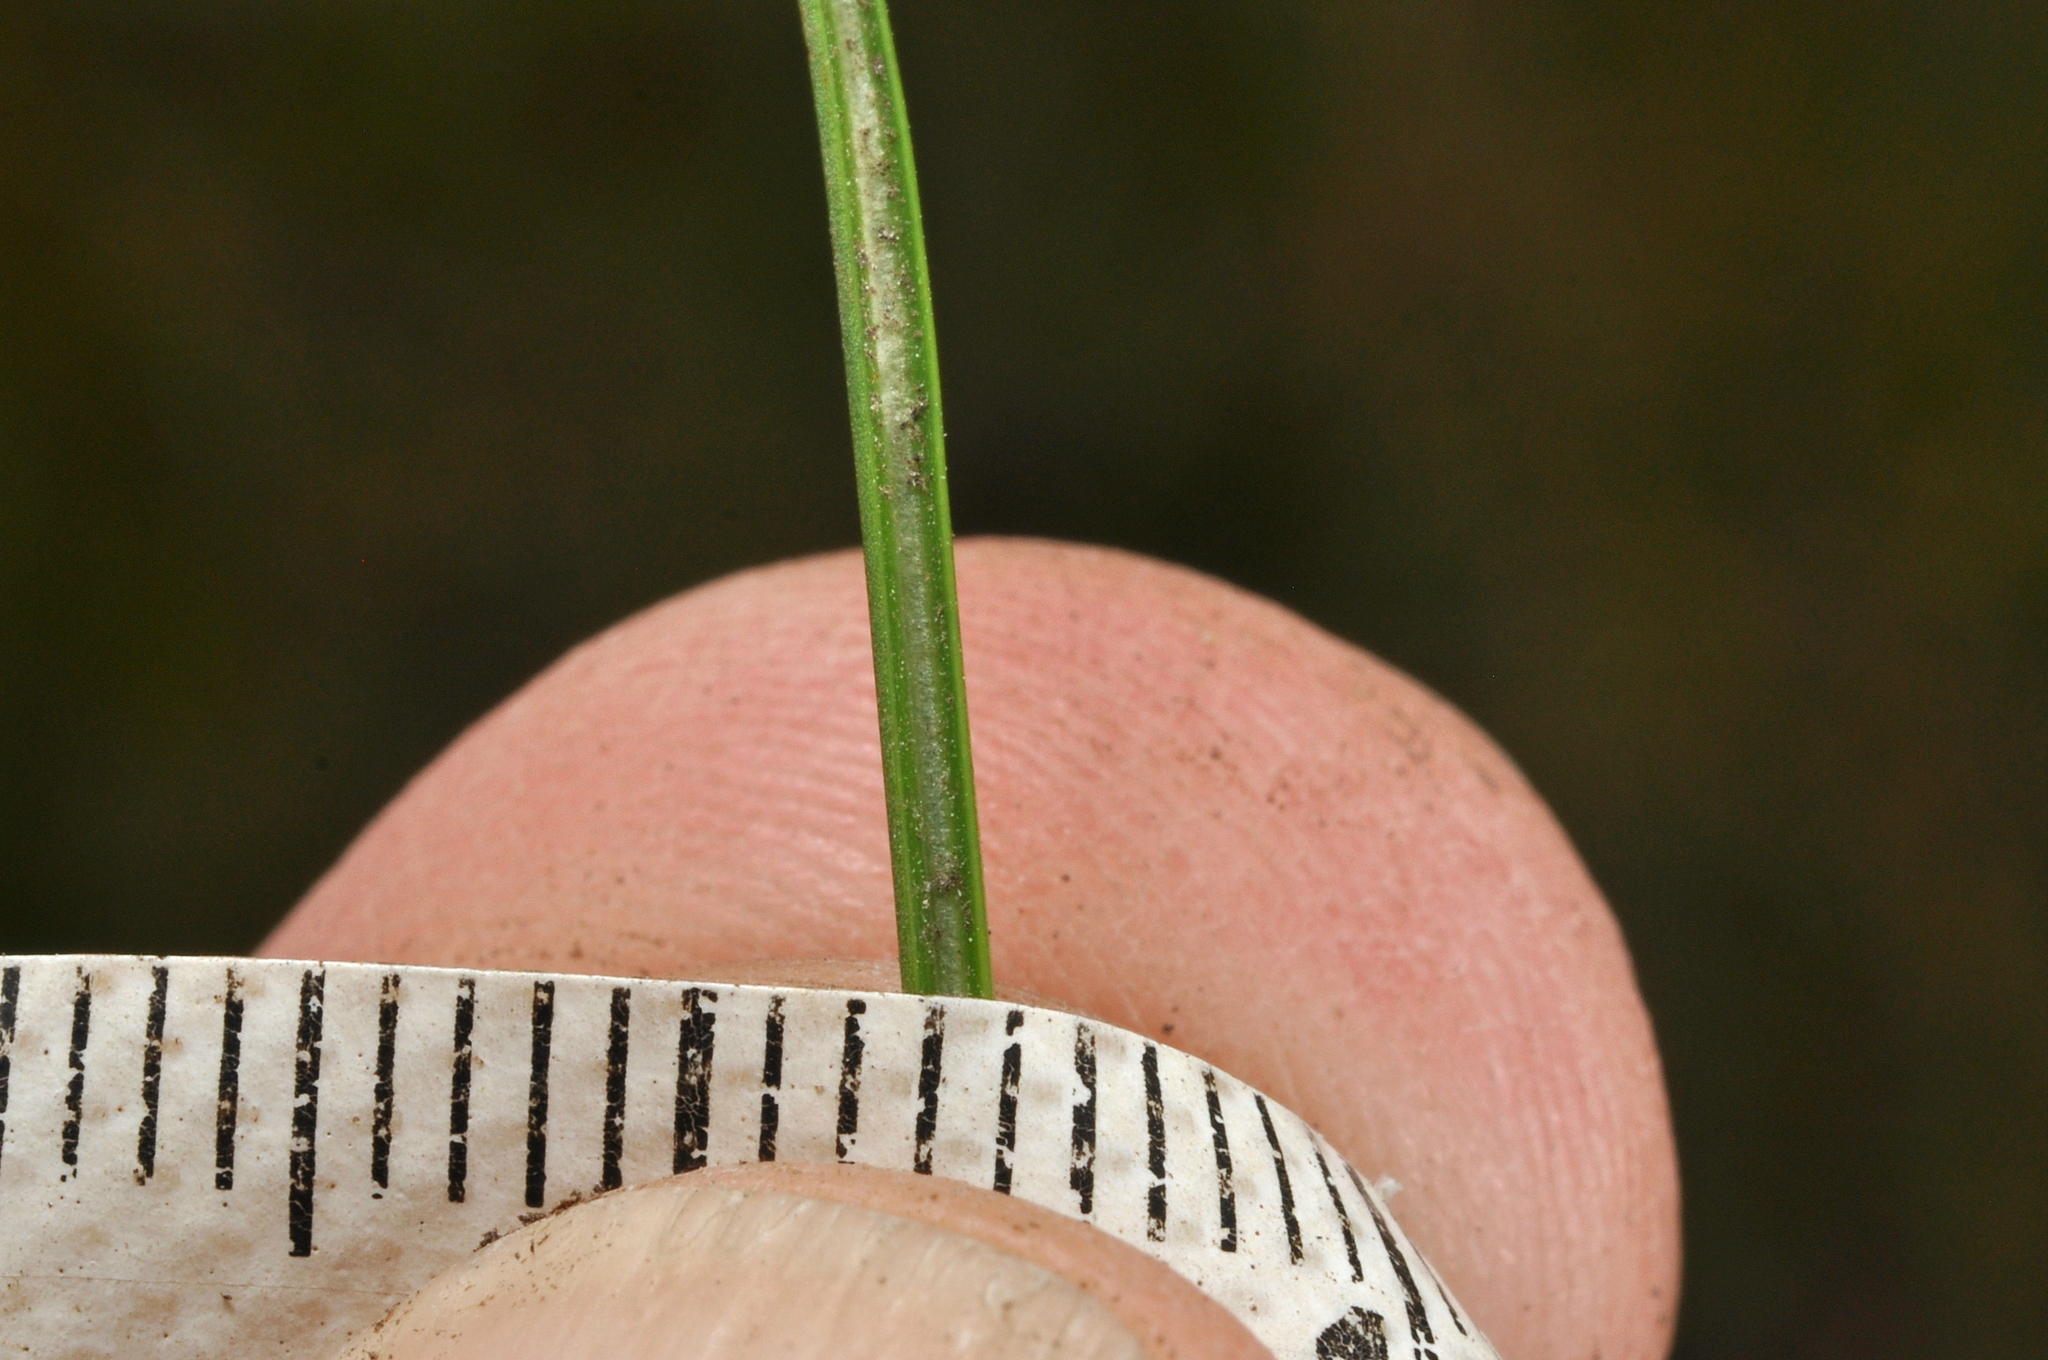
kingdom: Plantae
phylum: Tracheophyta
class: Liliopsida
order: Poales
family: Juncaceae
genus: Juncus
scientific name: Juncus squarrosus
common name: Heath rush
